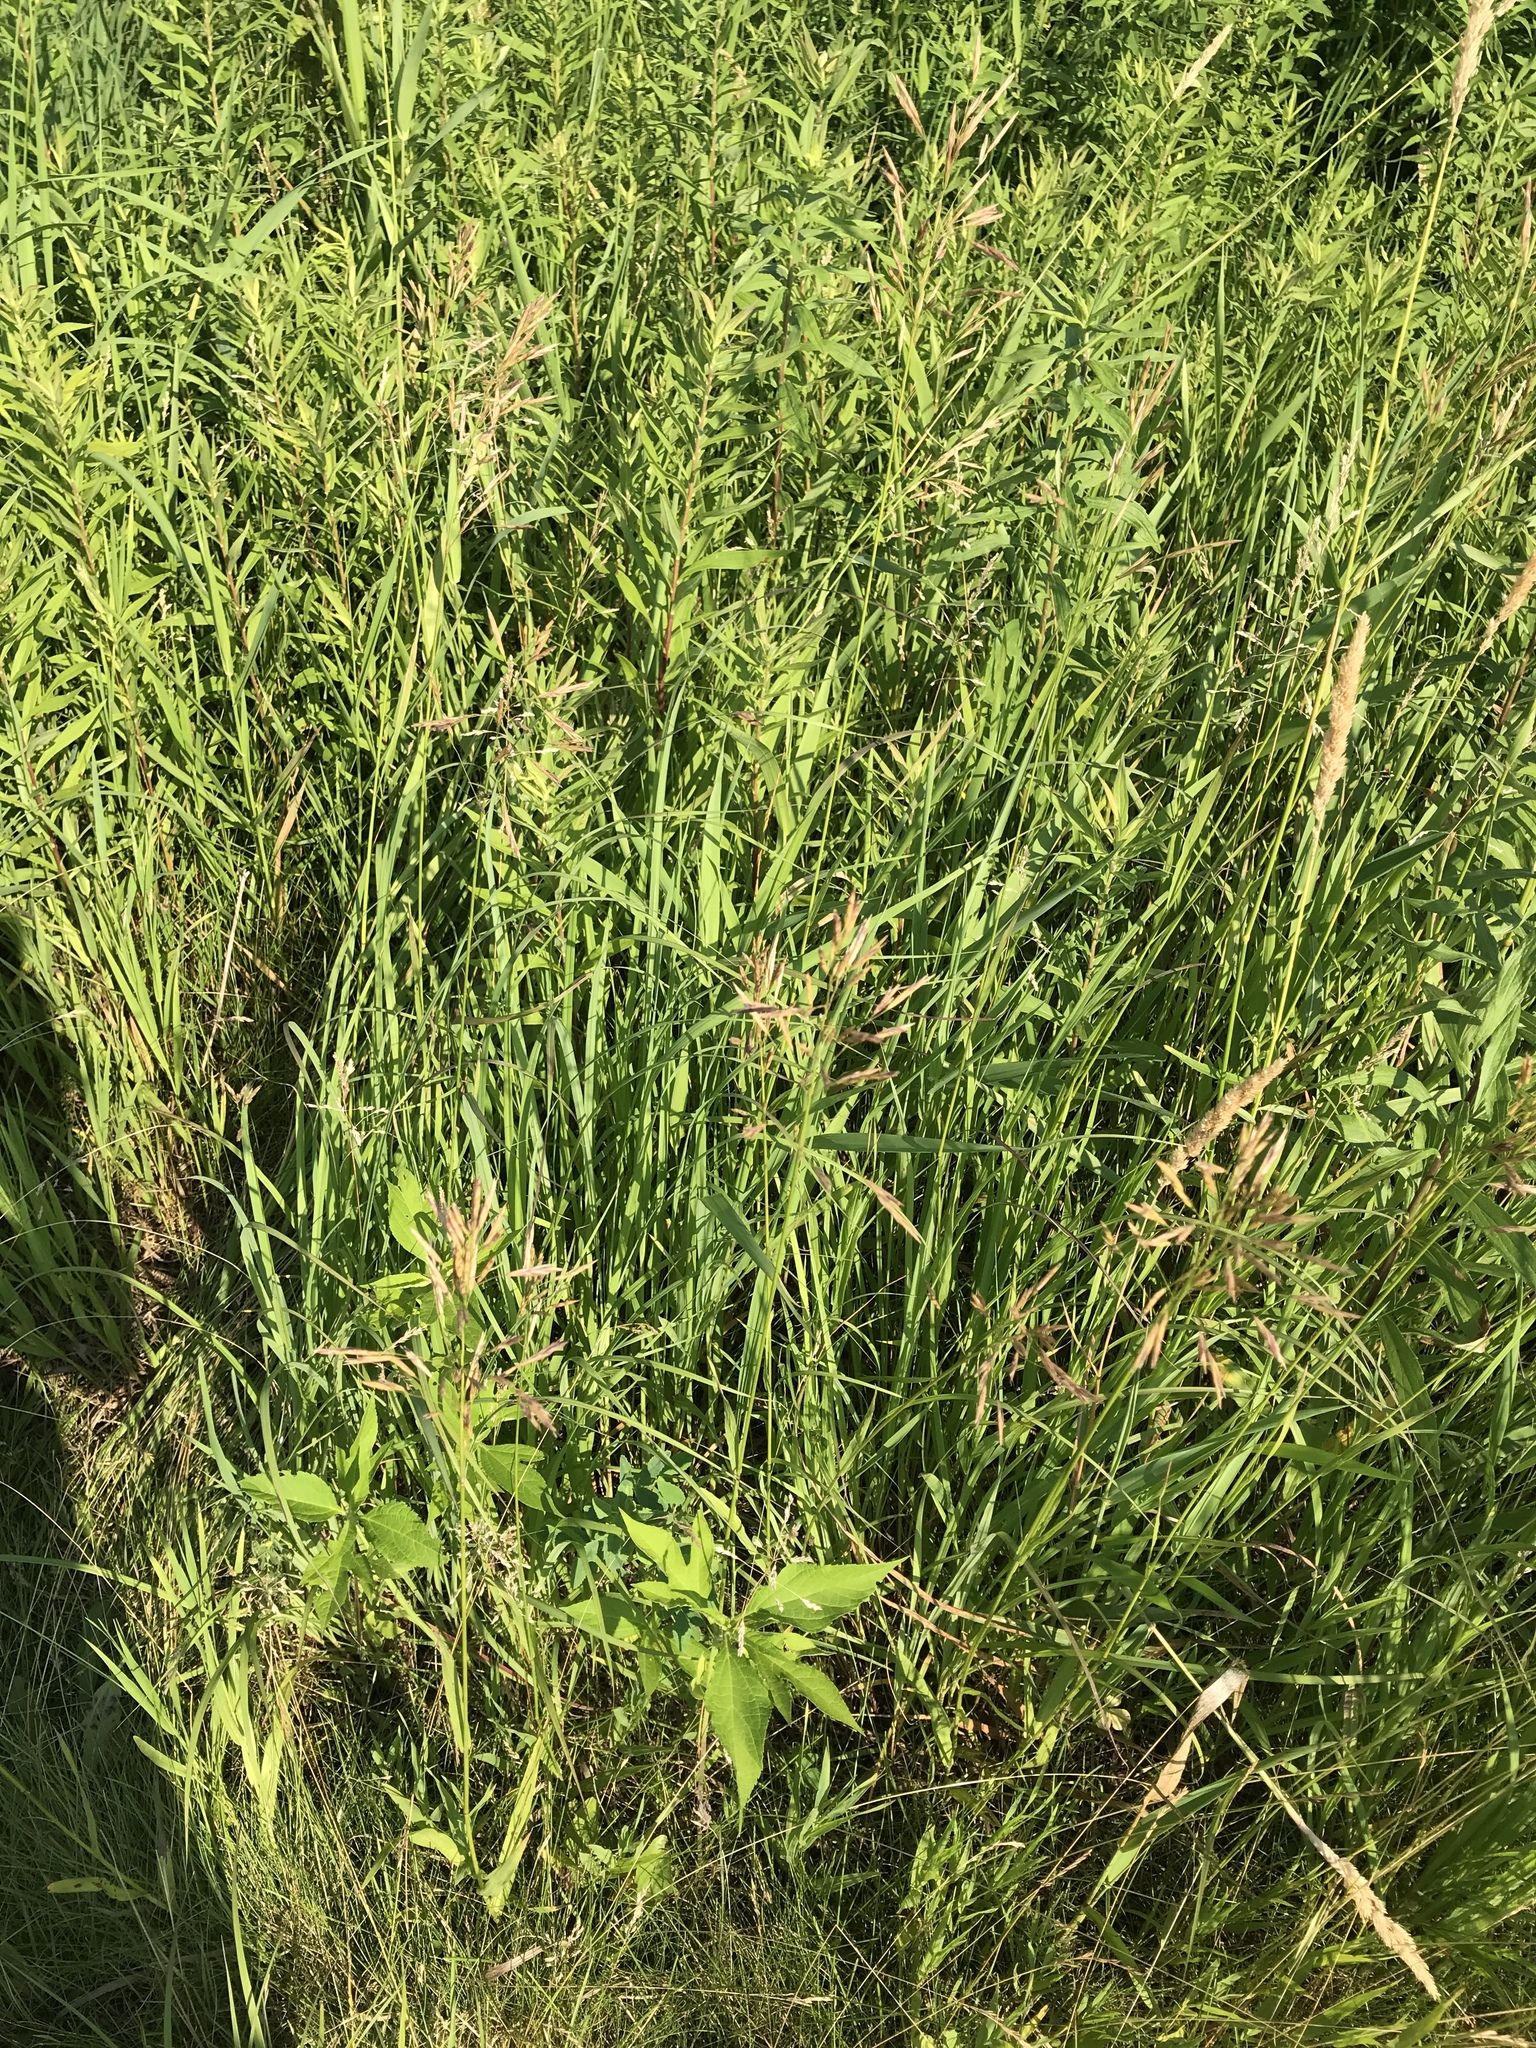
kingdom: Plantae
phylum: Tracheophyta
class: Liliopsida
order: Poales
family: Poaceae
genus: Bromus
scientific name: Bromus inermis
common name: Smooth brome
